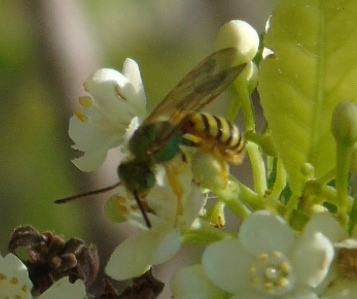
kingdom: Animalia
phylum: Arthropoda
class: Insecta
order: Hymenoptera
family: Halictidae
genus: Agapostemon
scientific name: Agapostemon
